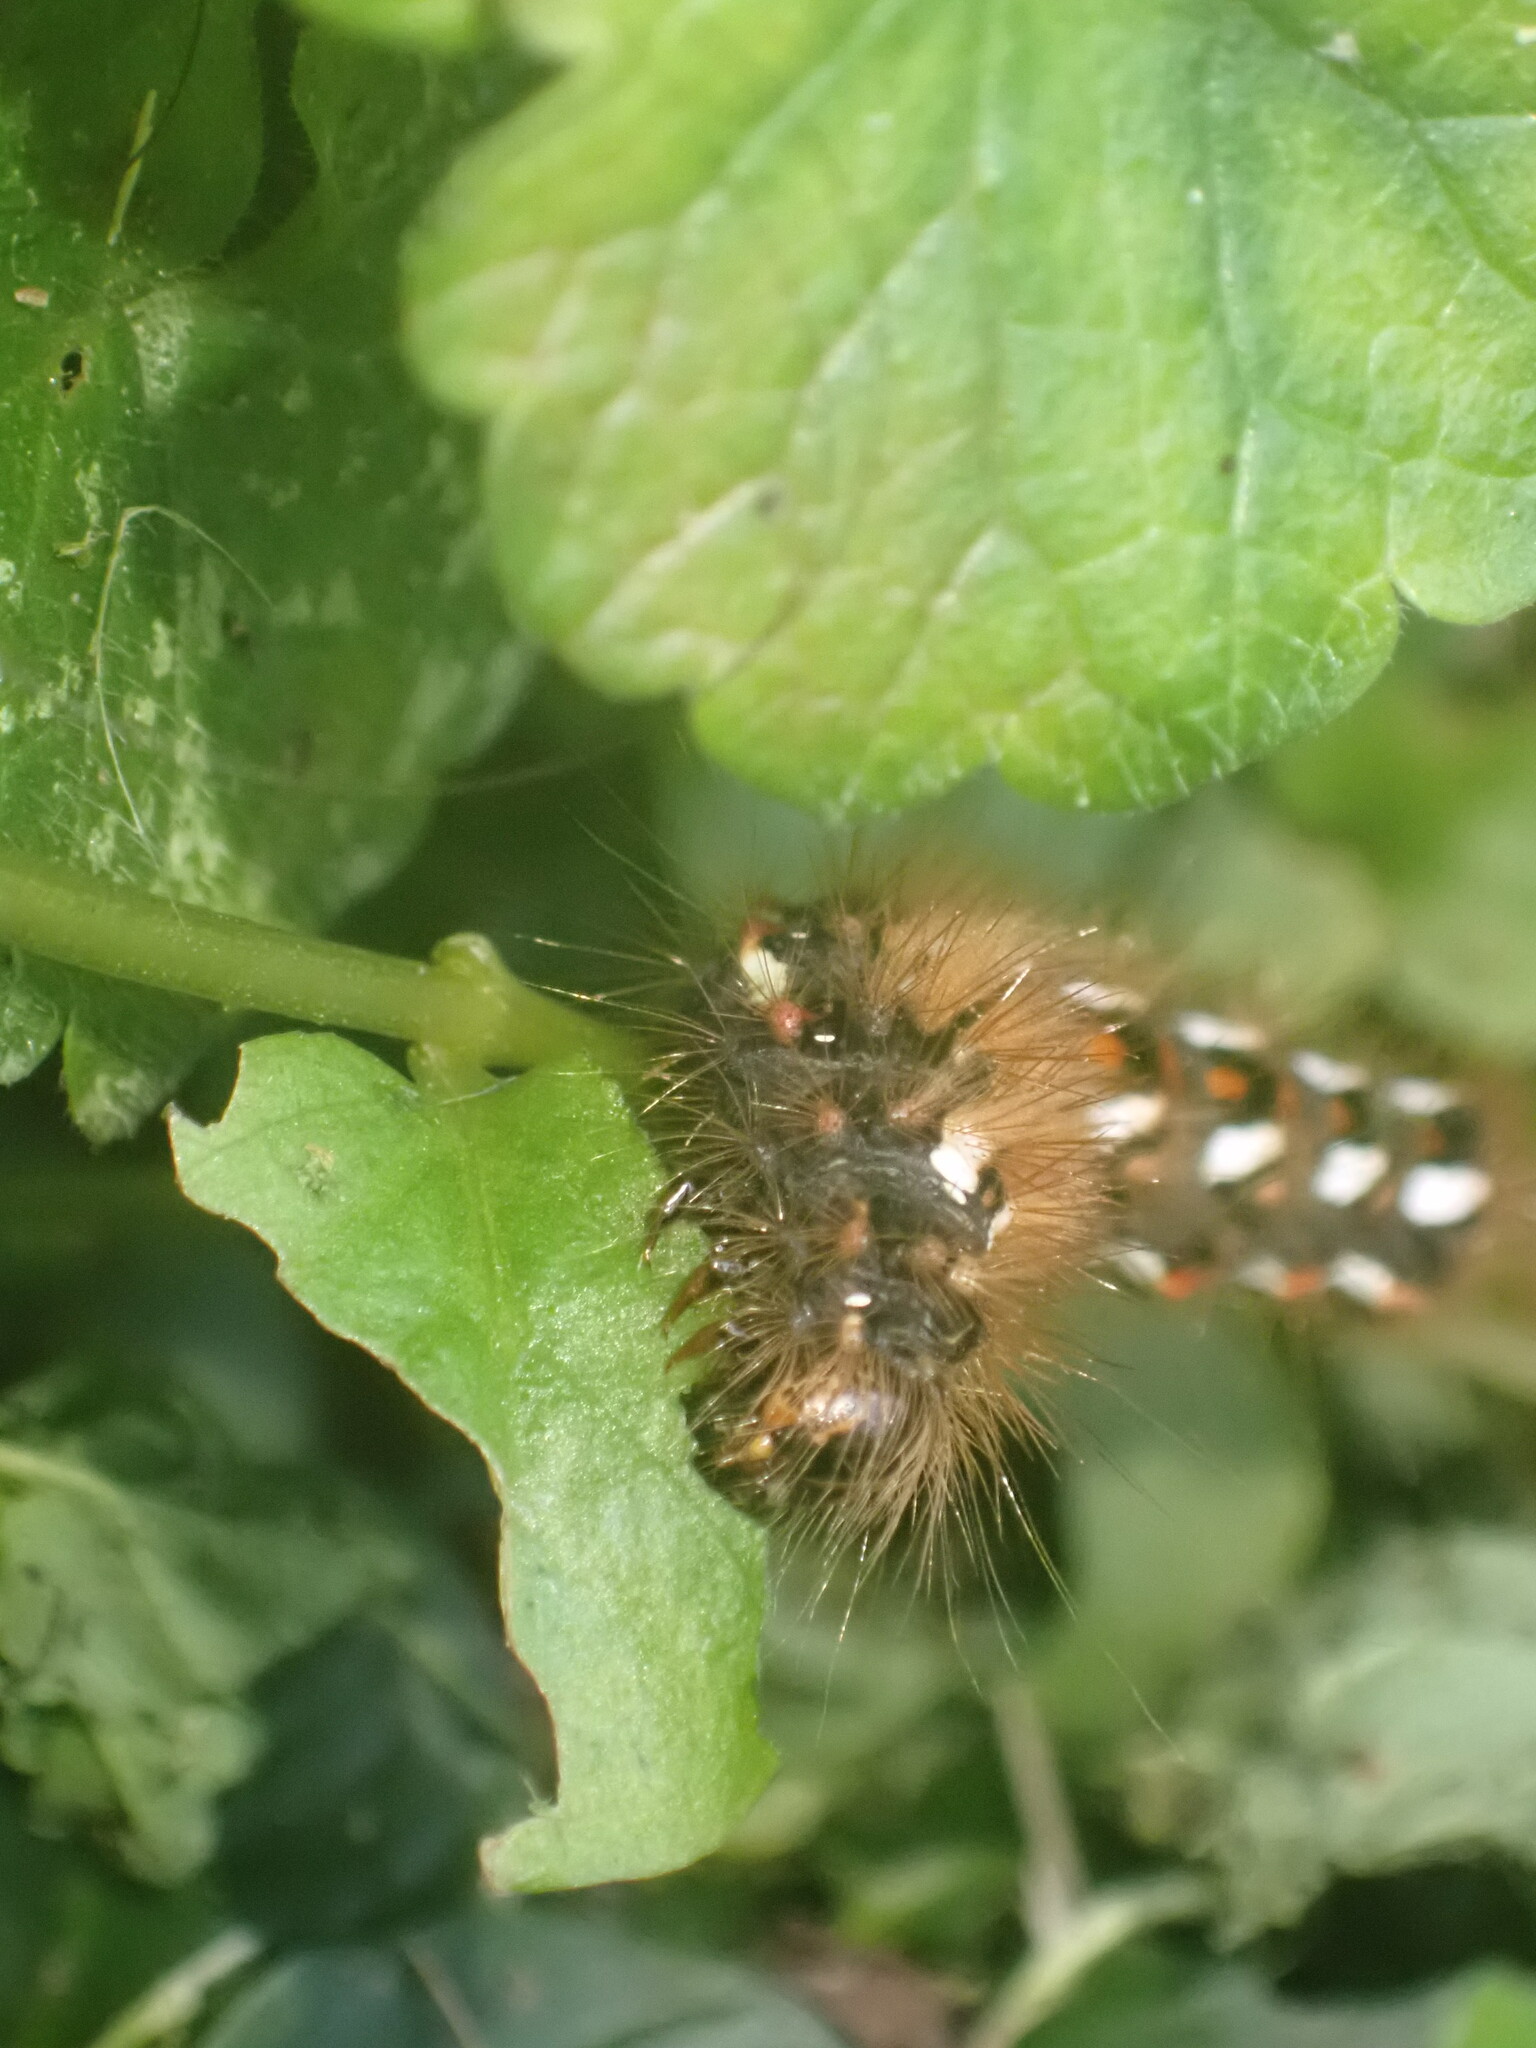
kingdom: Animalia
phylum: Arthropoda
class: Insecta
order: Lepidoptera
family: Noctuidae
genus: Acronicta
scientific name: Acronicta rumicis
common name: Knot grass
